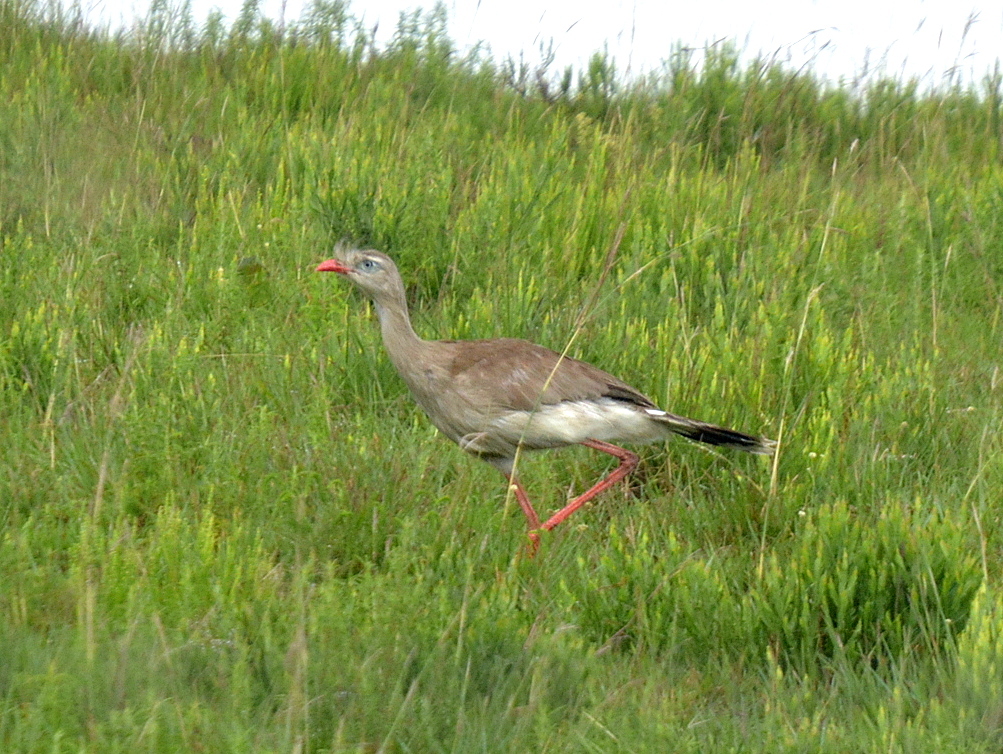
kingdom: Animalia
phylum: Chordata
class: Aves
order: Cariamiformes
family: Cariamidae
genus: Cariama
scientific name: Cariama cristata
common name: Red-legged seriema
